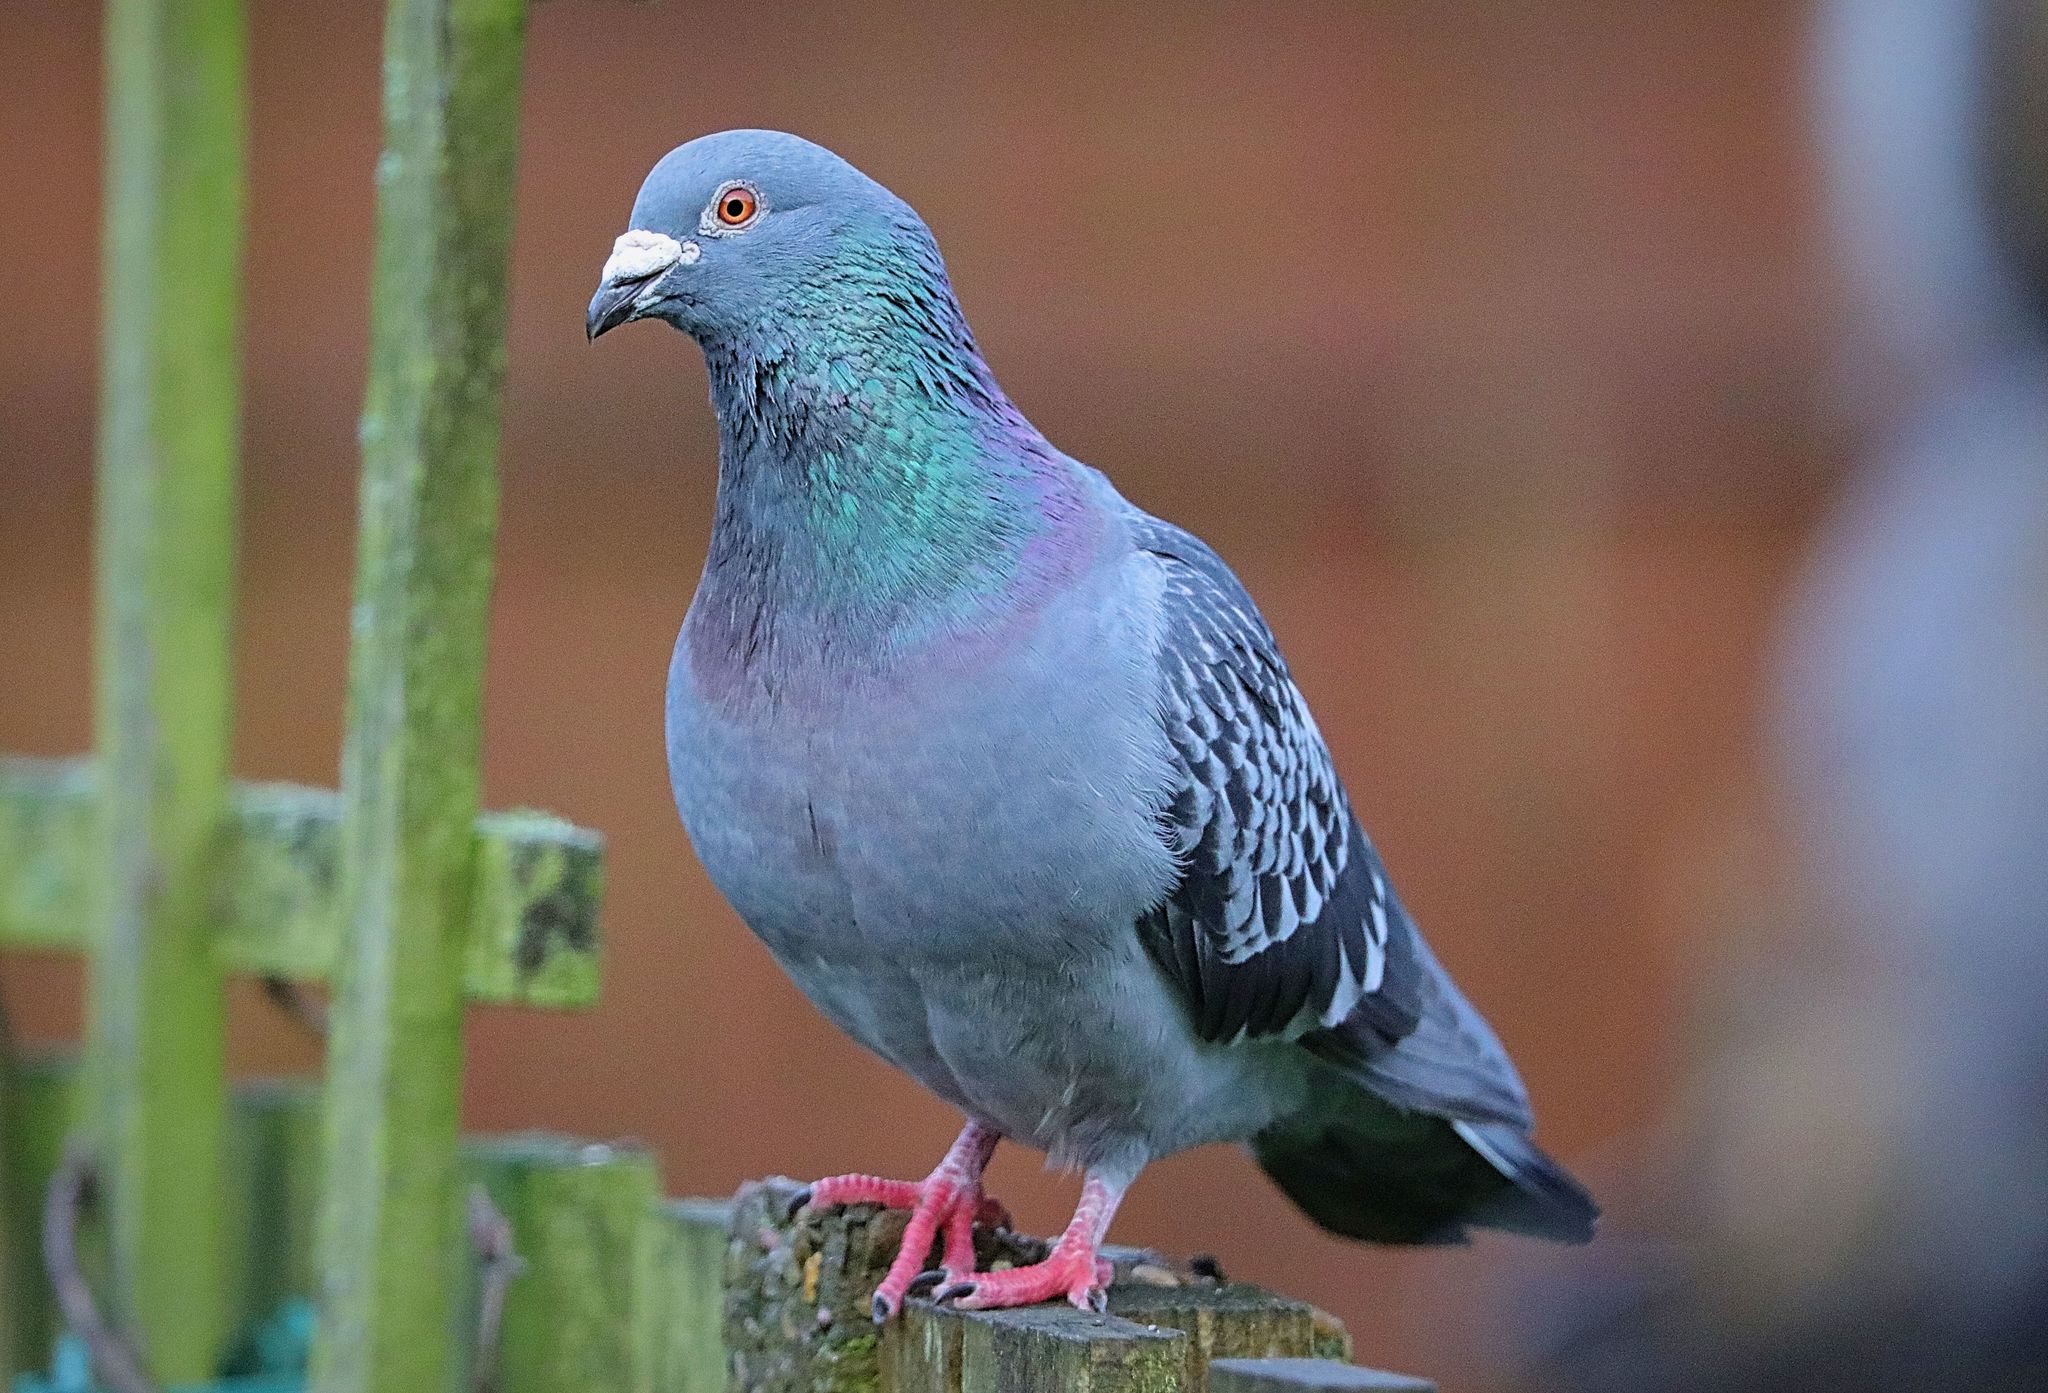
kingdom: Animalia
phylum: Chordata
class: Aves
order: Columbiformes
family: Columbidae
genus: Columba
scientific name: Columba livia
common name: Rock pigeon
